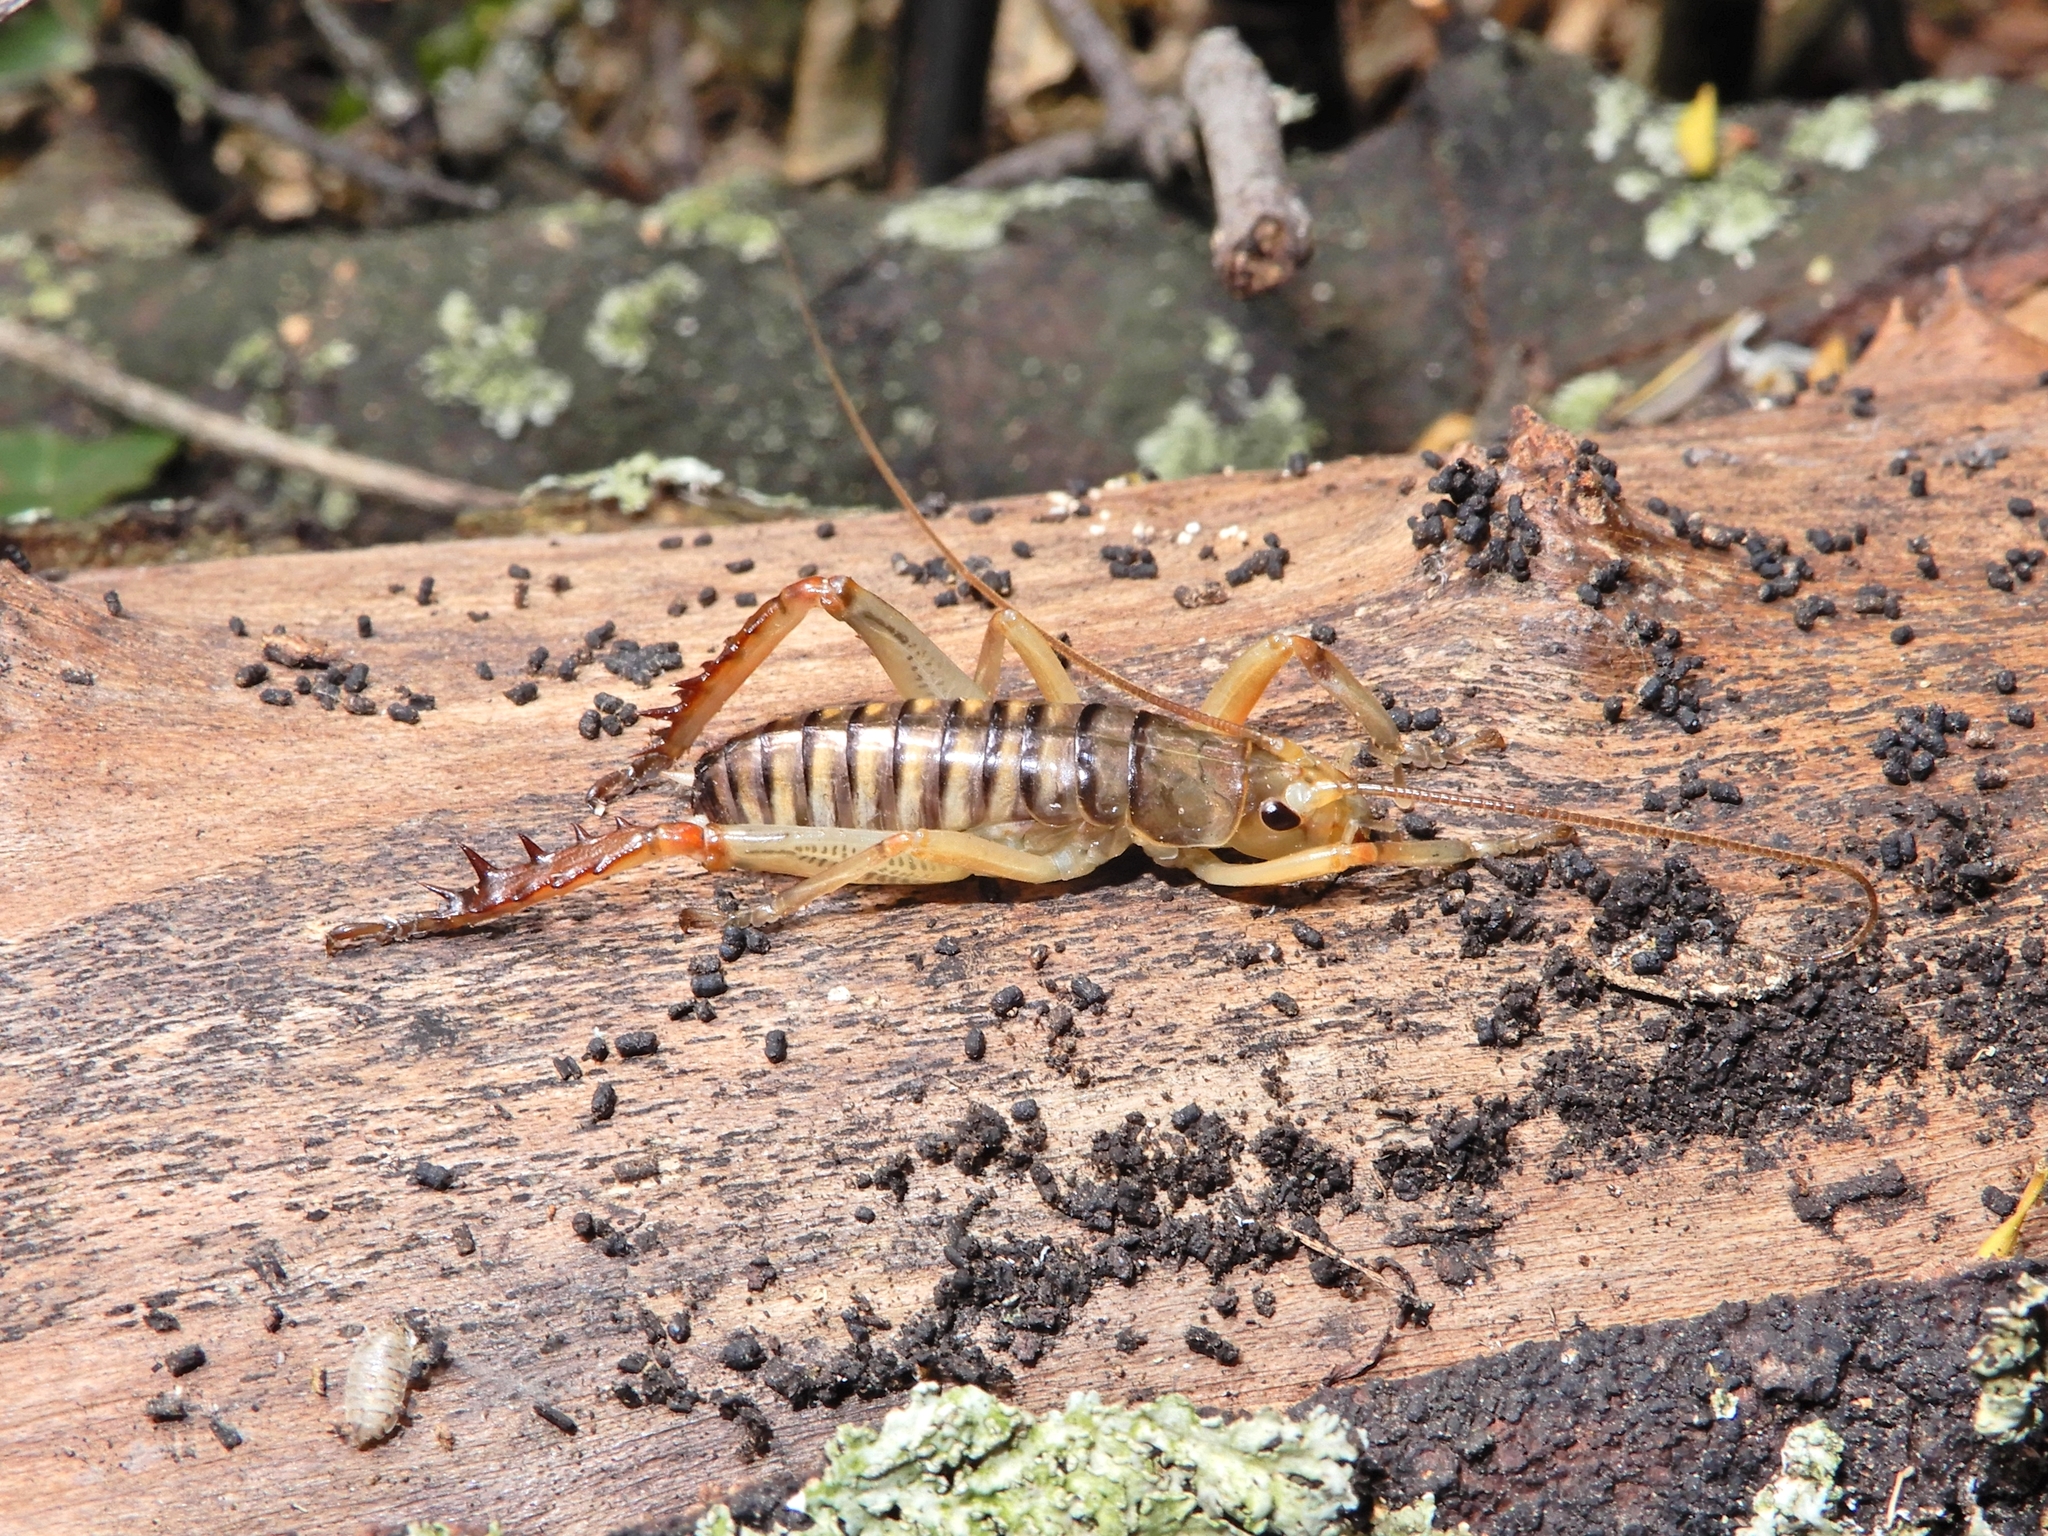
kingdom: Animalia
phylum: Arthropoda
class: Insecta
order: Orthoptera
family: Anostostomatidae
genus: Hemideina
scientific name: Hemideina crassidens
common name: Wellington tree weta
